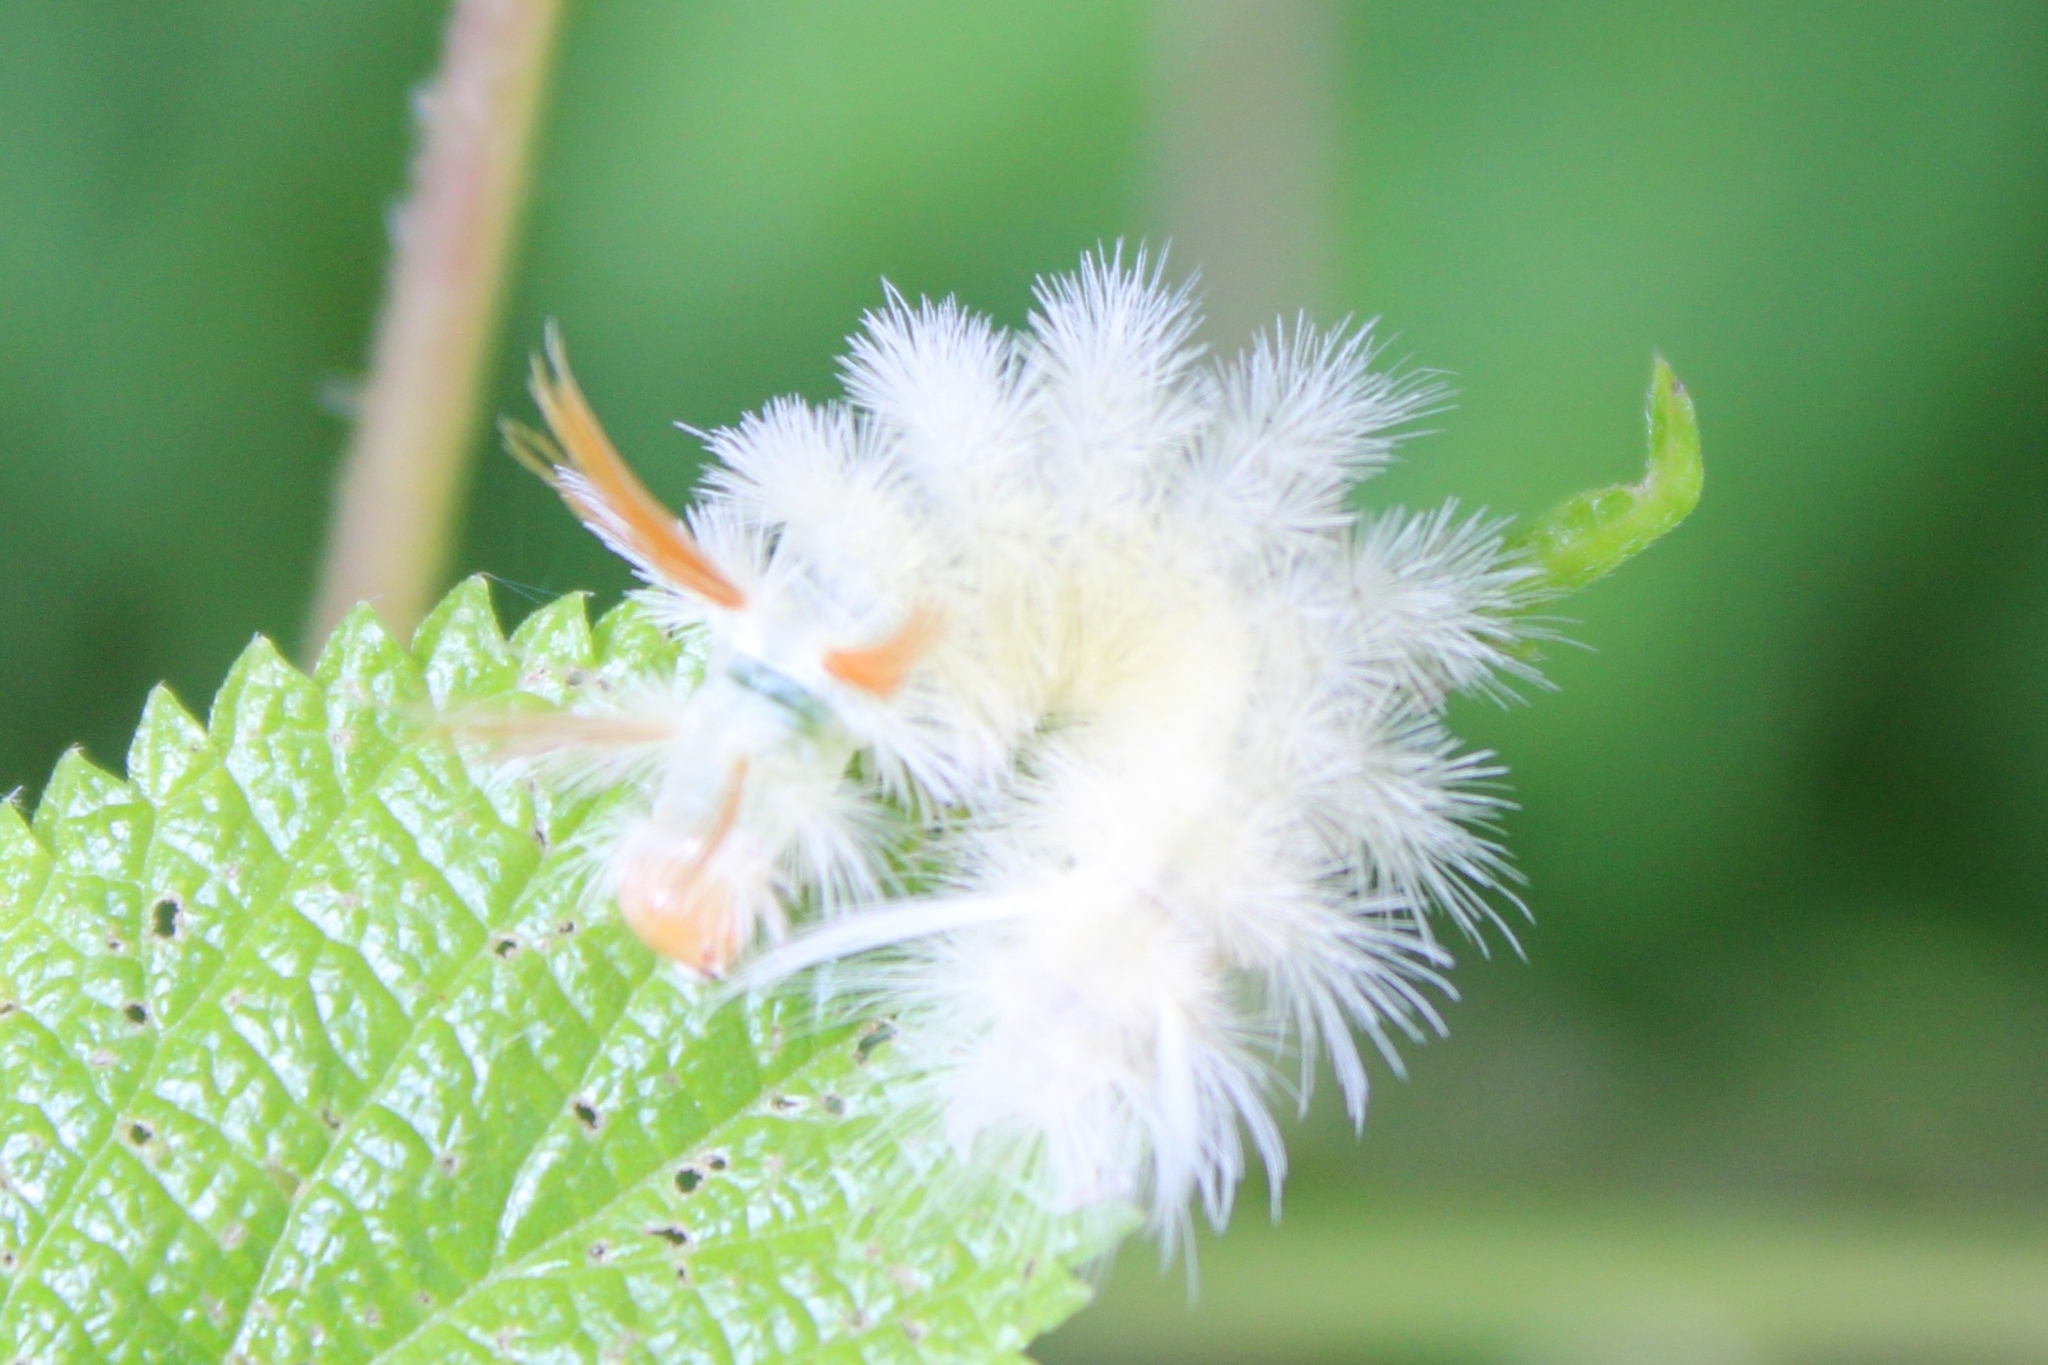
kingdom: Animalia
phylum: Arthropoda
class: Insecta
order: Lepidoptera
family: Erebidae
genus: Halysidota
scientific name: Halysidota harrisii
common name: Sycamore tussock moth
